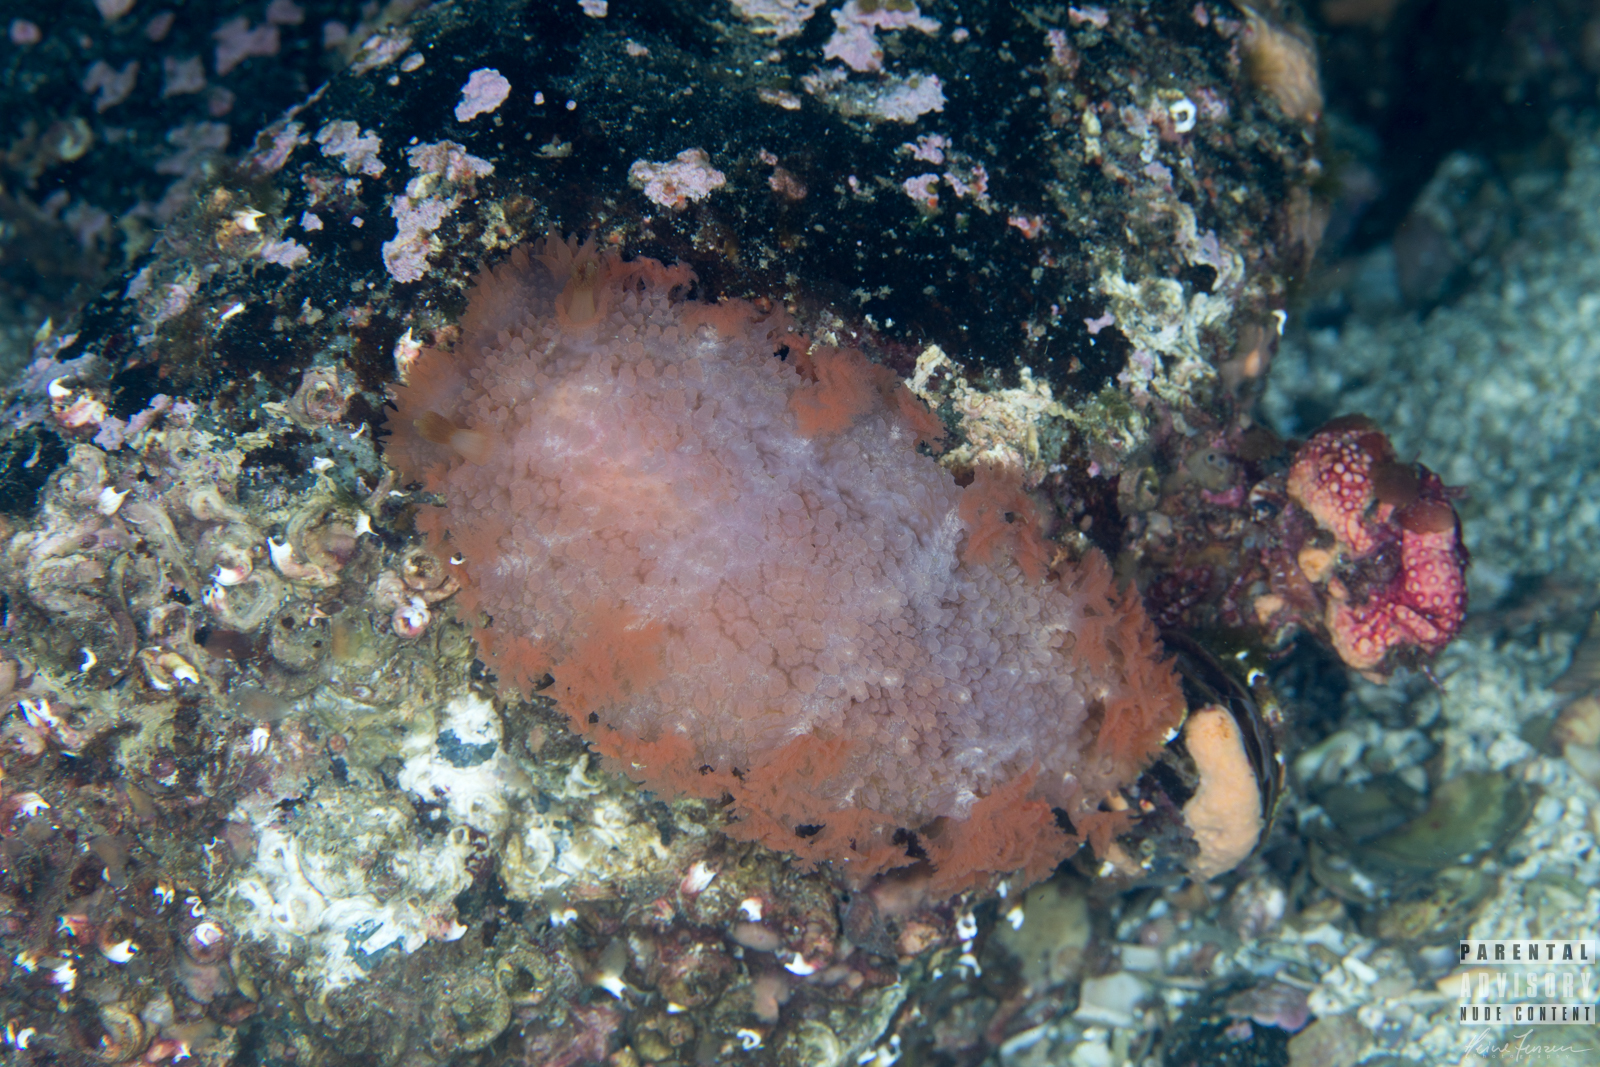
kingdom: Animalia
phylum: Mollusca
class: Gastropoda
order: Nudibranchia
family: Tritoniidae
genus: Tritonia
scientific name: Tritonia hombergii
